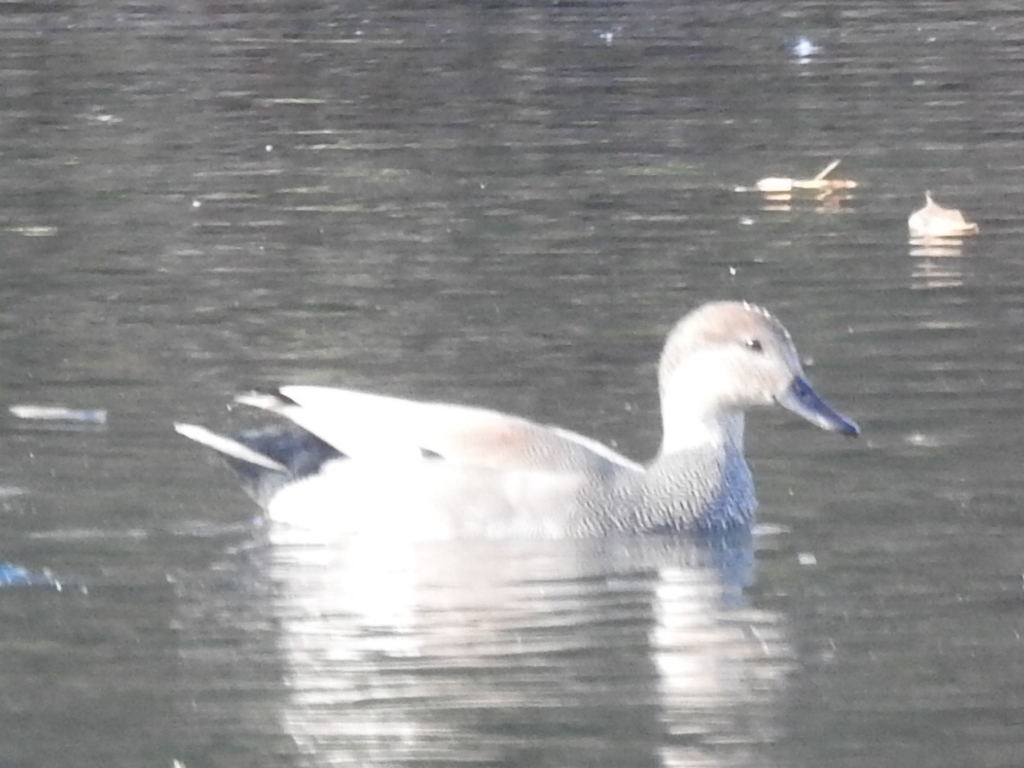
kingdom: Animalia
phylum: Chordata
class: Aves
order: Anseriformes
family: Anatidae
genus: Mareca
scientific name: Mareca strepera
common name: Gadwall
